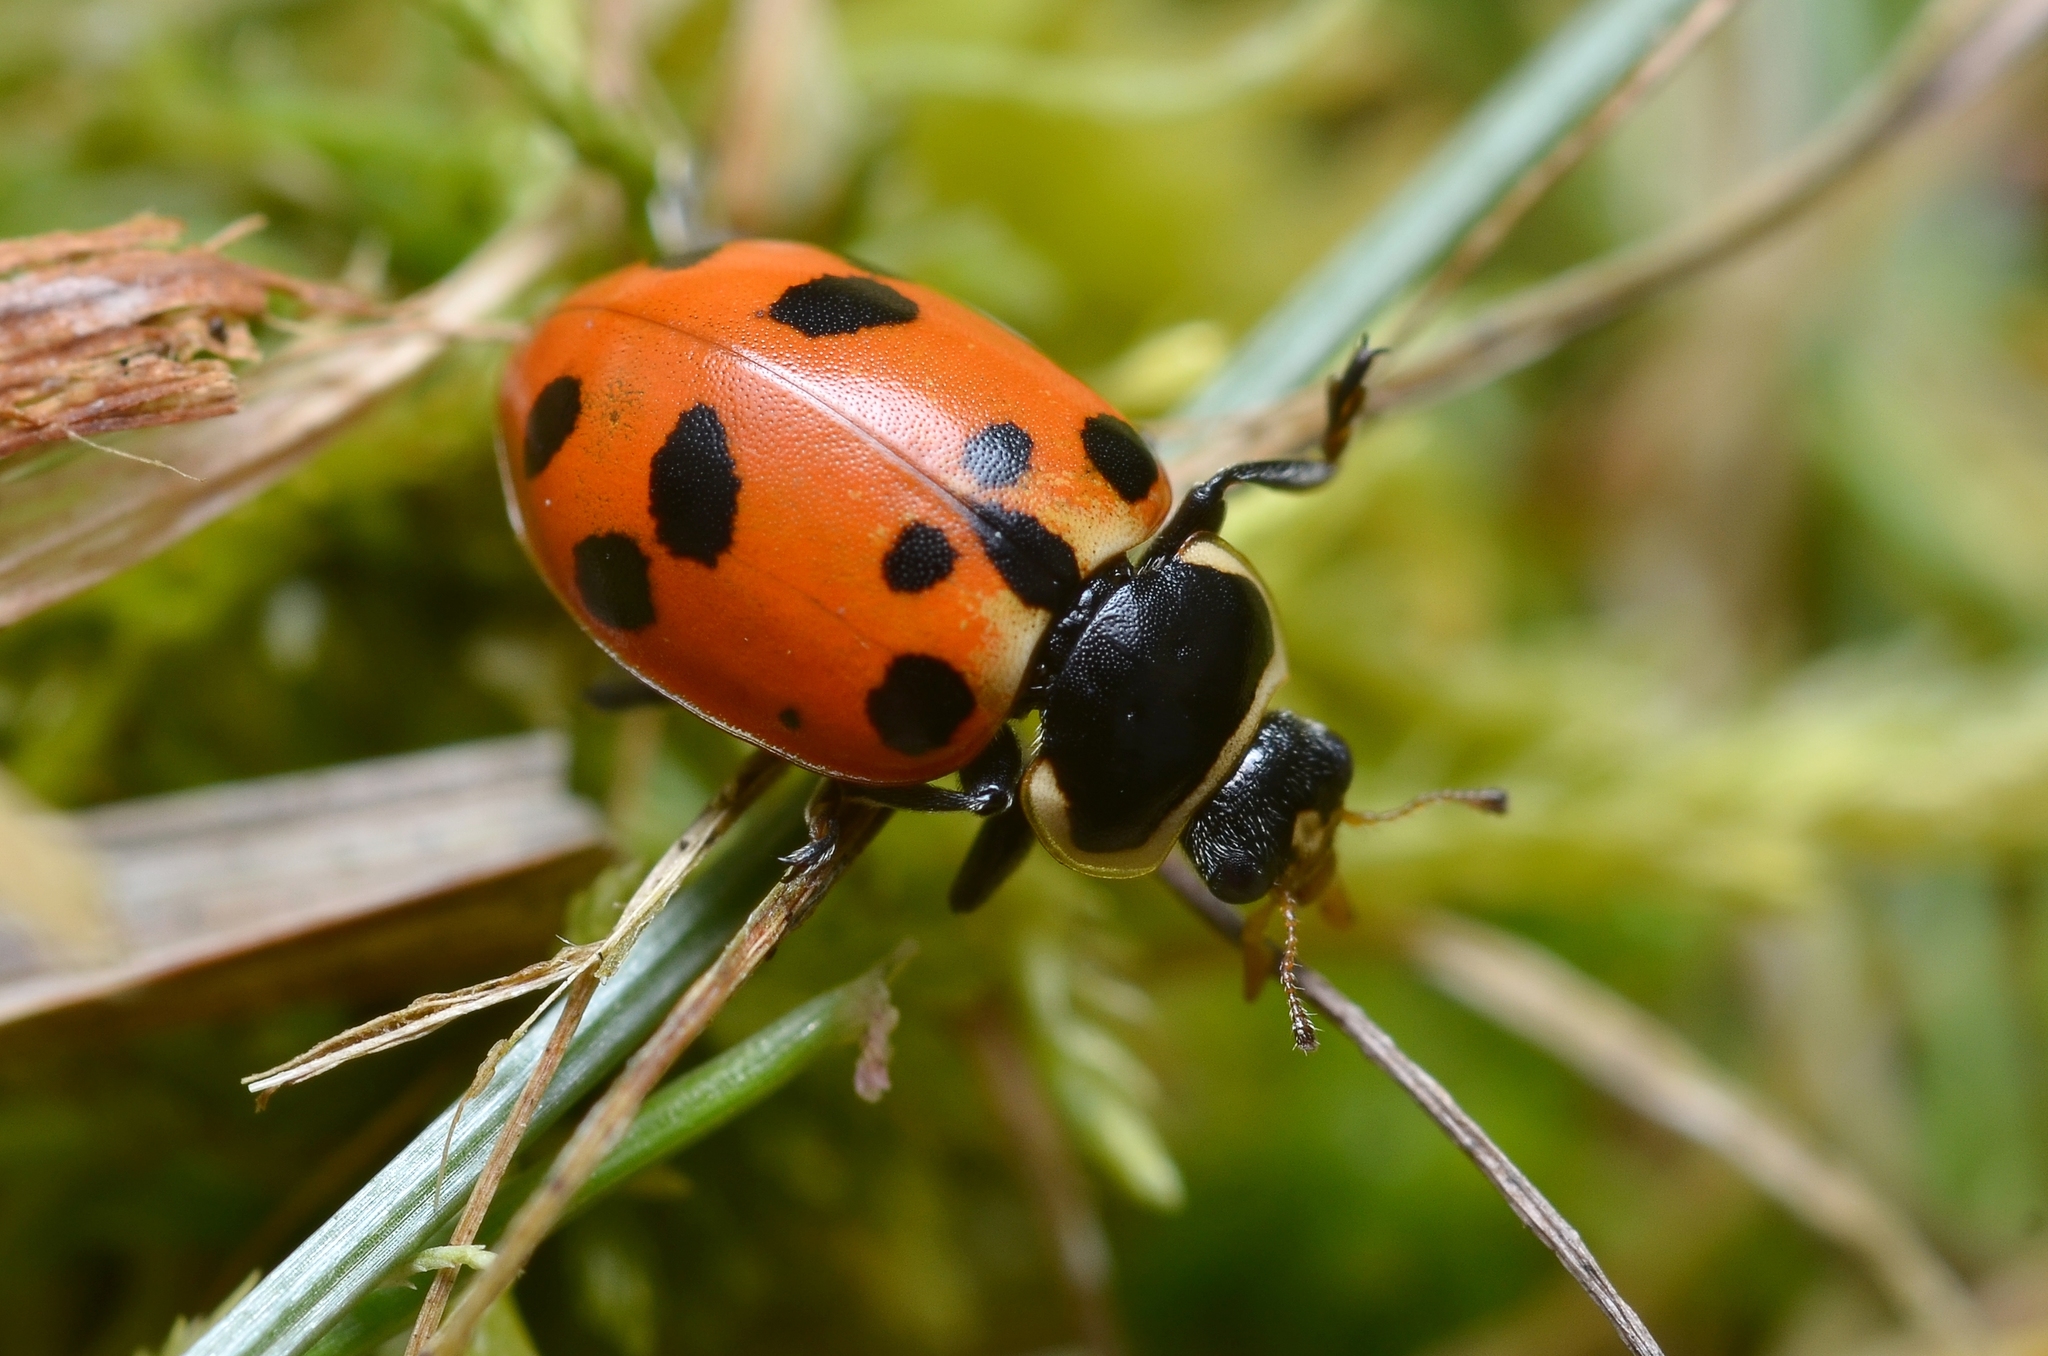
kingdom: Animalia
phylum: Arthropoda
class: Insecta
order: Coleoptera
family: Coccinellidae
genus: Hippodamia
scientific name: Hippodamia septemmaculata
